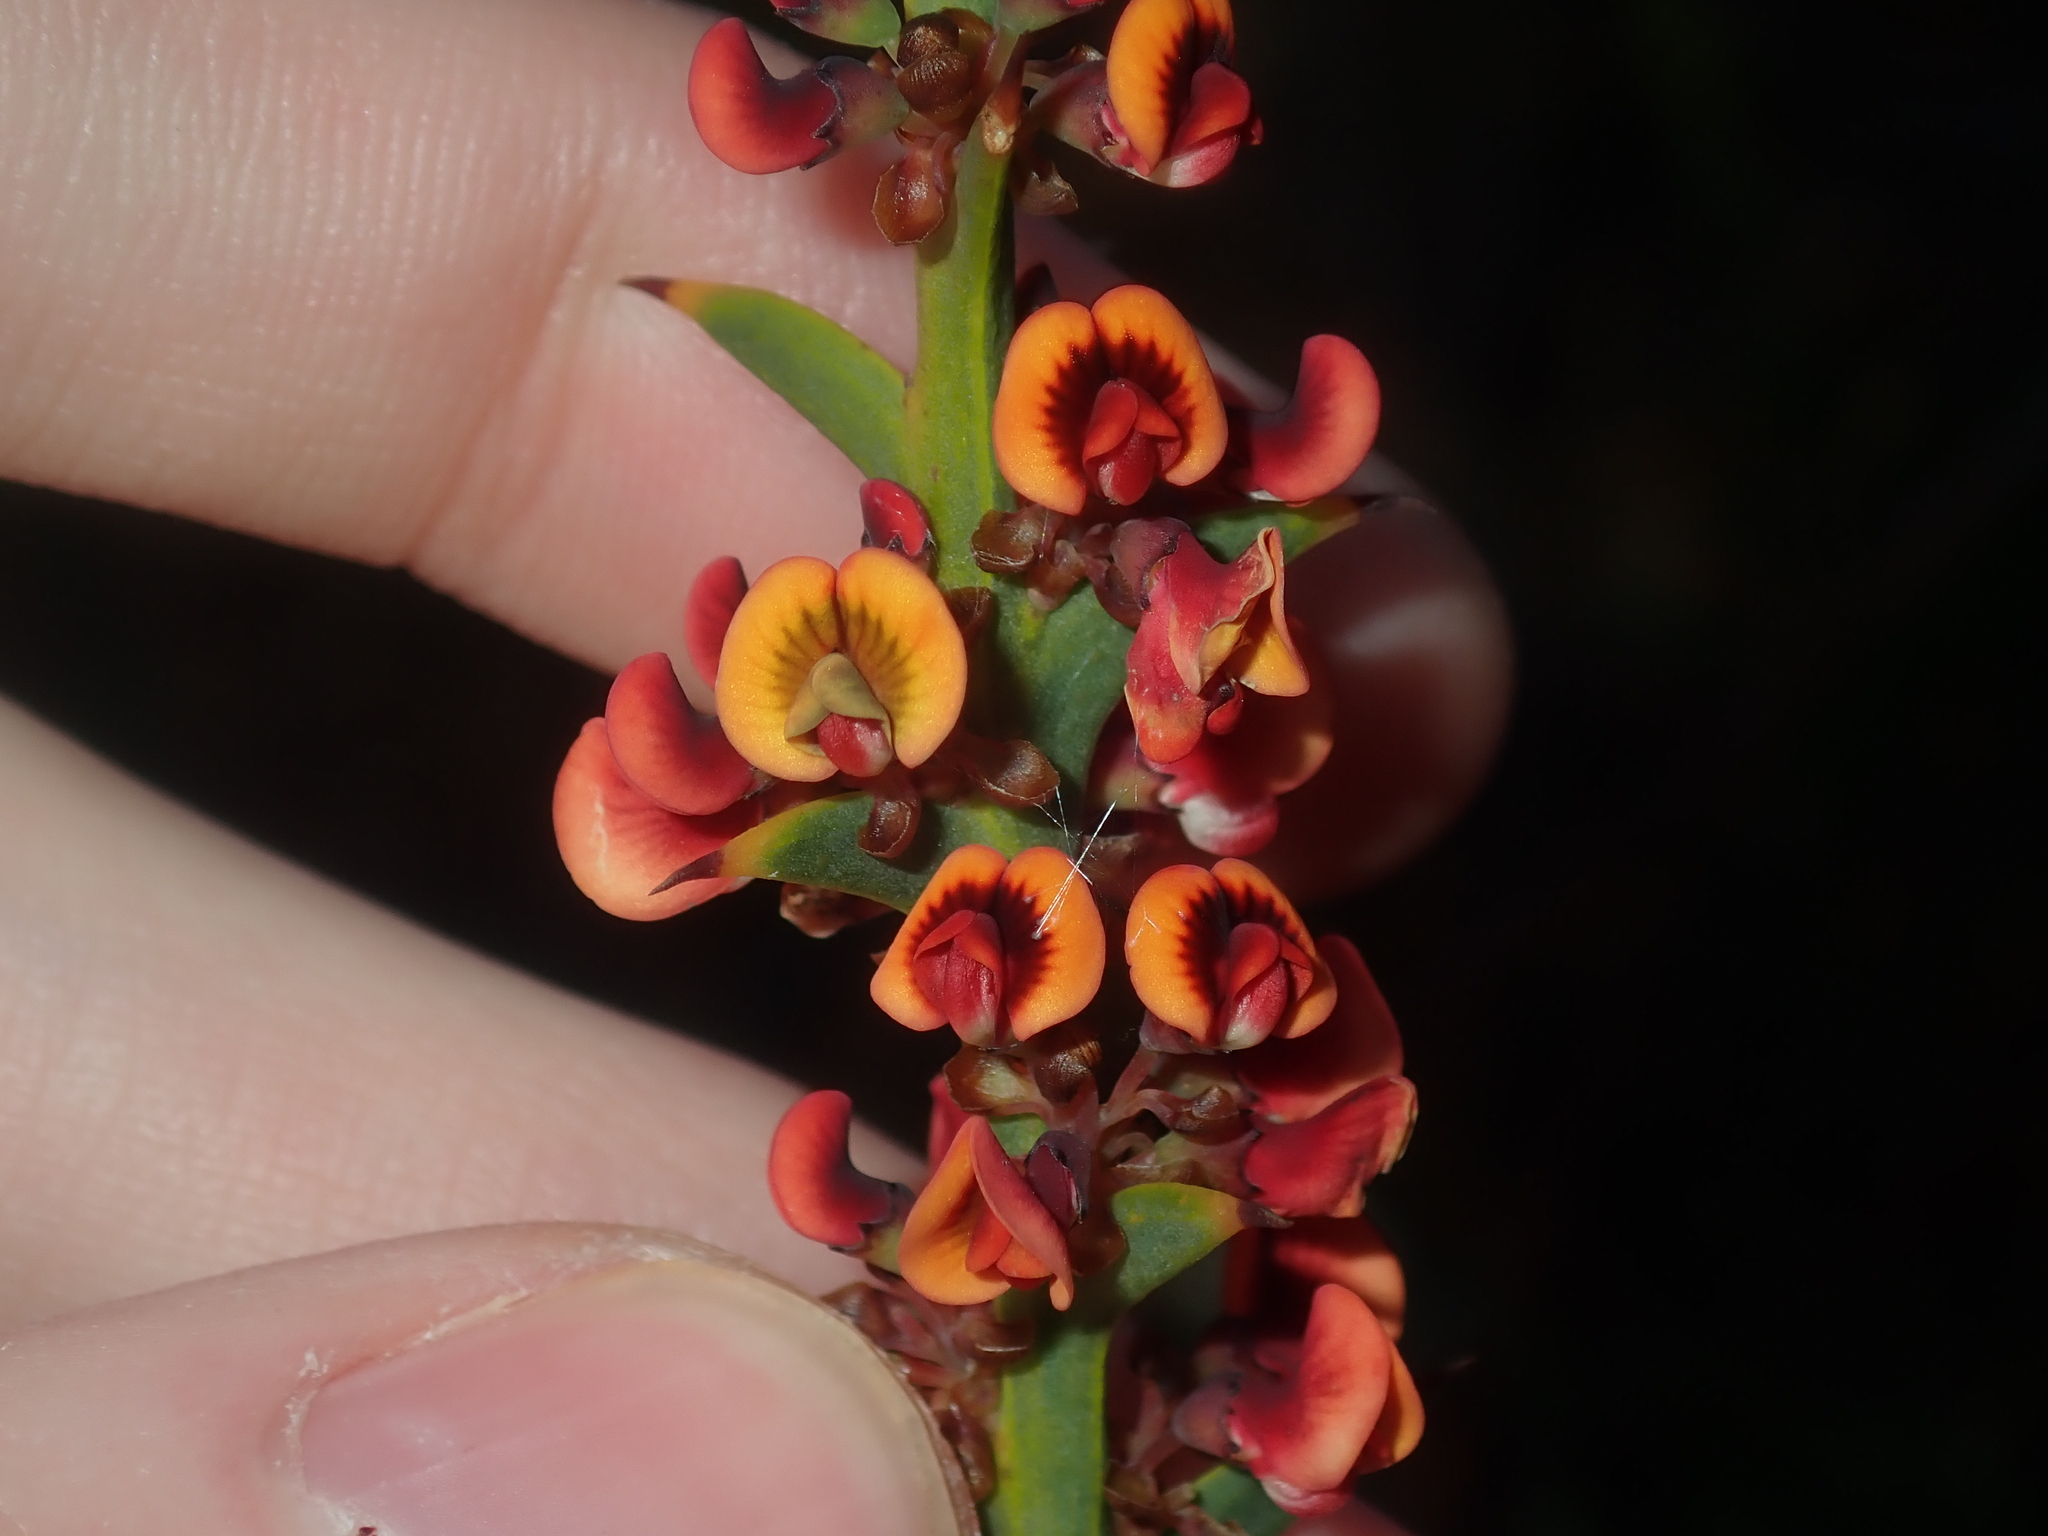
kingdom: Plantae
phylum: Tracheophyta
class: Magnoliopsida
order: Fabales
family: Fabaceae
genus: Daviesia
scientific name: Daviesia decurrens
